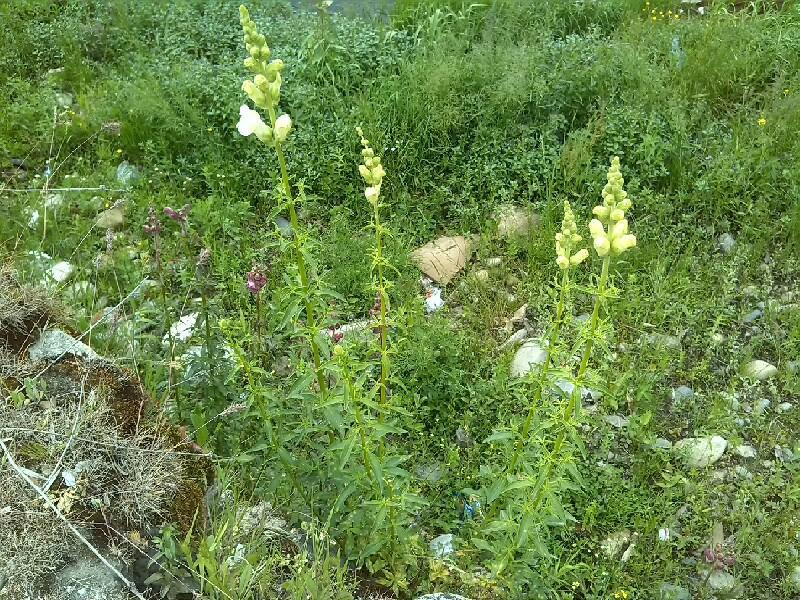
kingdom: Plantae
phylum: Tracheophyta
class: Magnoliopsida
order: Lamiales
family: Plantaginaceae
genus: Antirrhinum
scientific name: Antirrhinum majus
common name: Snapdragon
